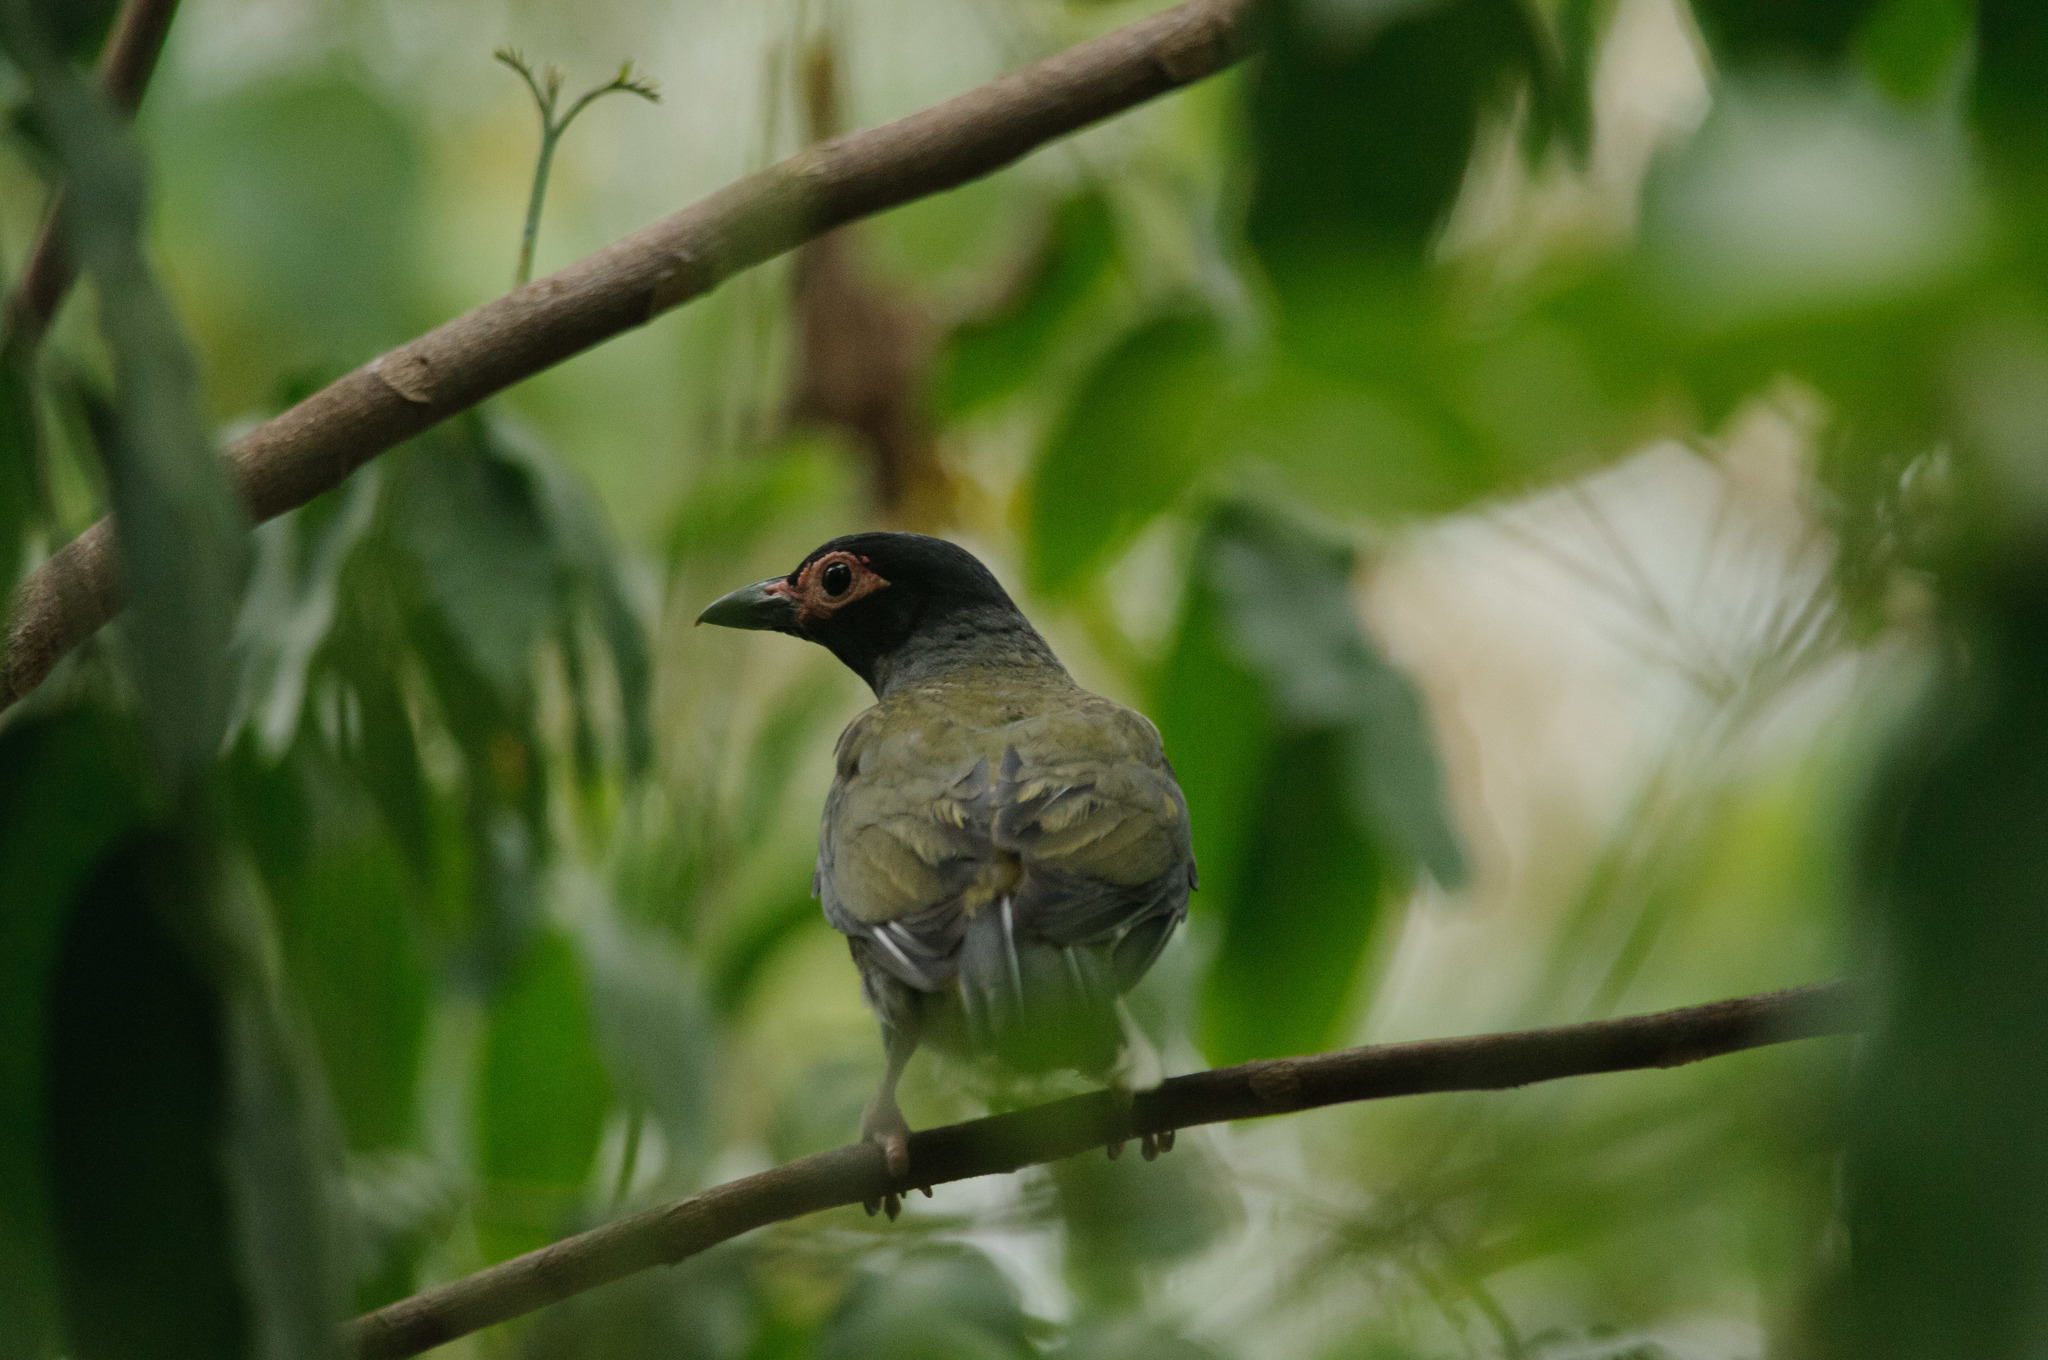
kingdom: Animalia
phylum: Chordata
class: Aves
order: Passeriformes
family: Oriolidae
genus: Sphecotheres
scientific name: Sphecotheres vieilloti
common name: Australasian figbird
